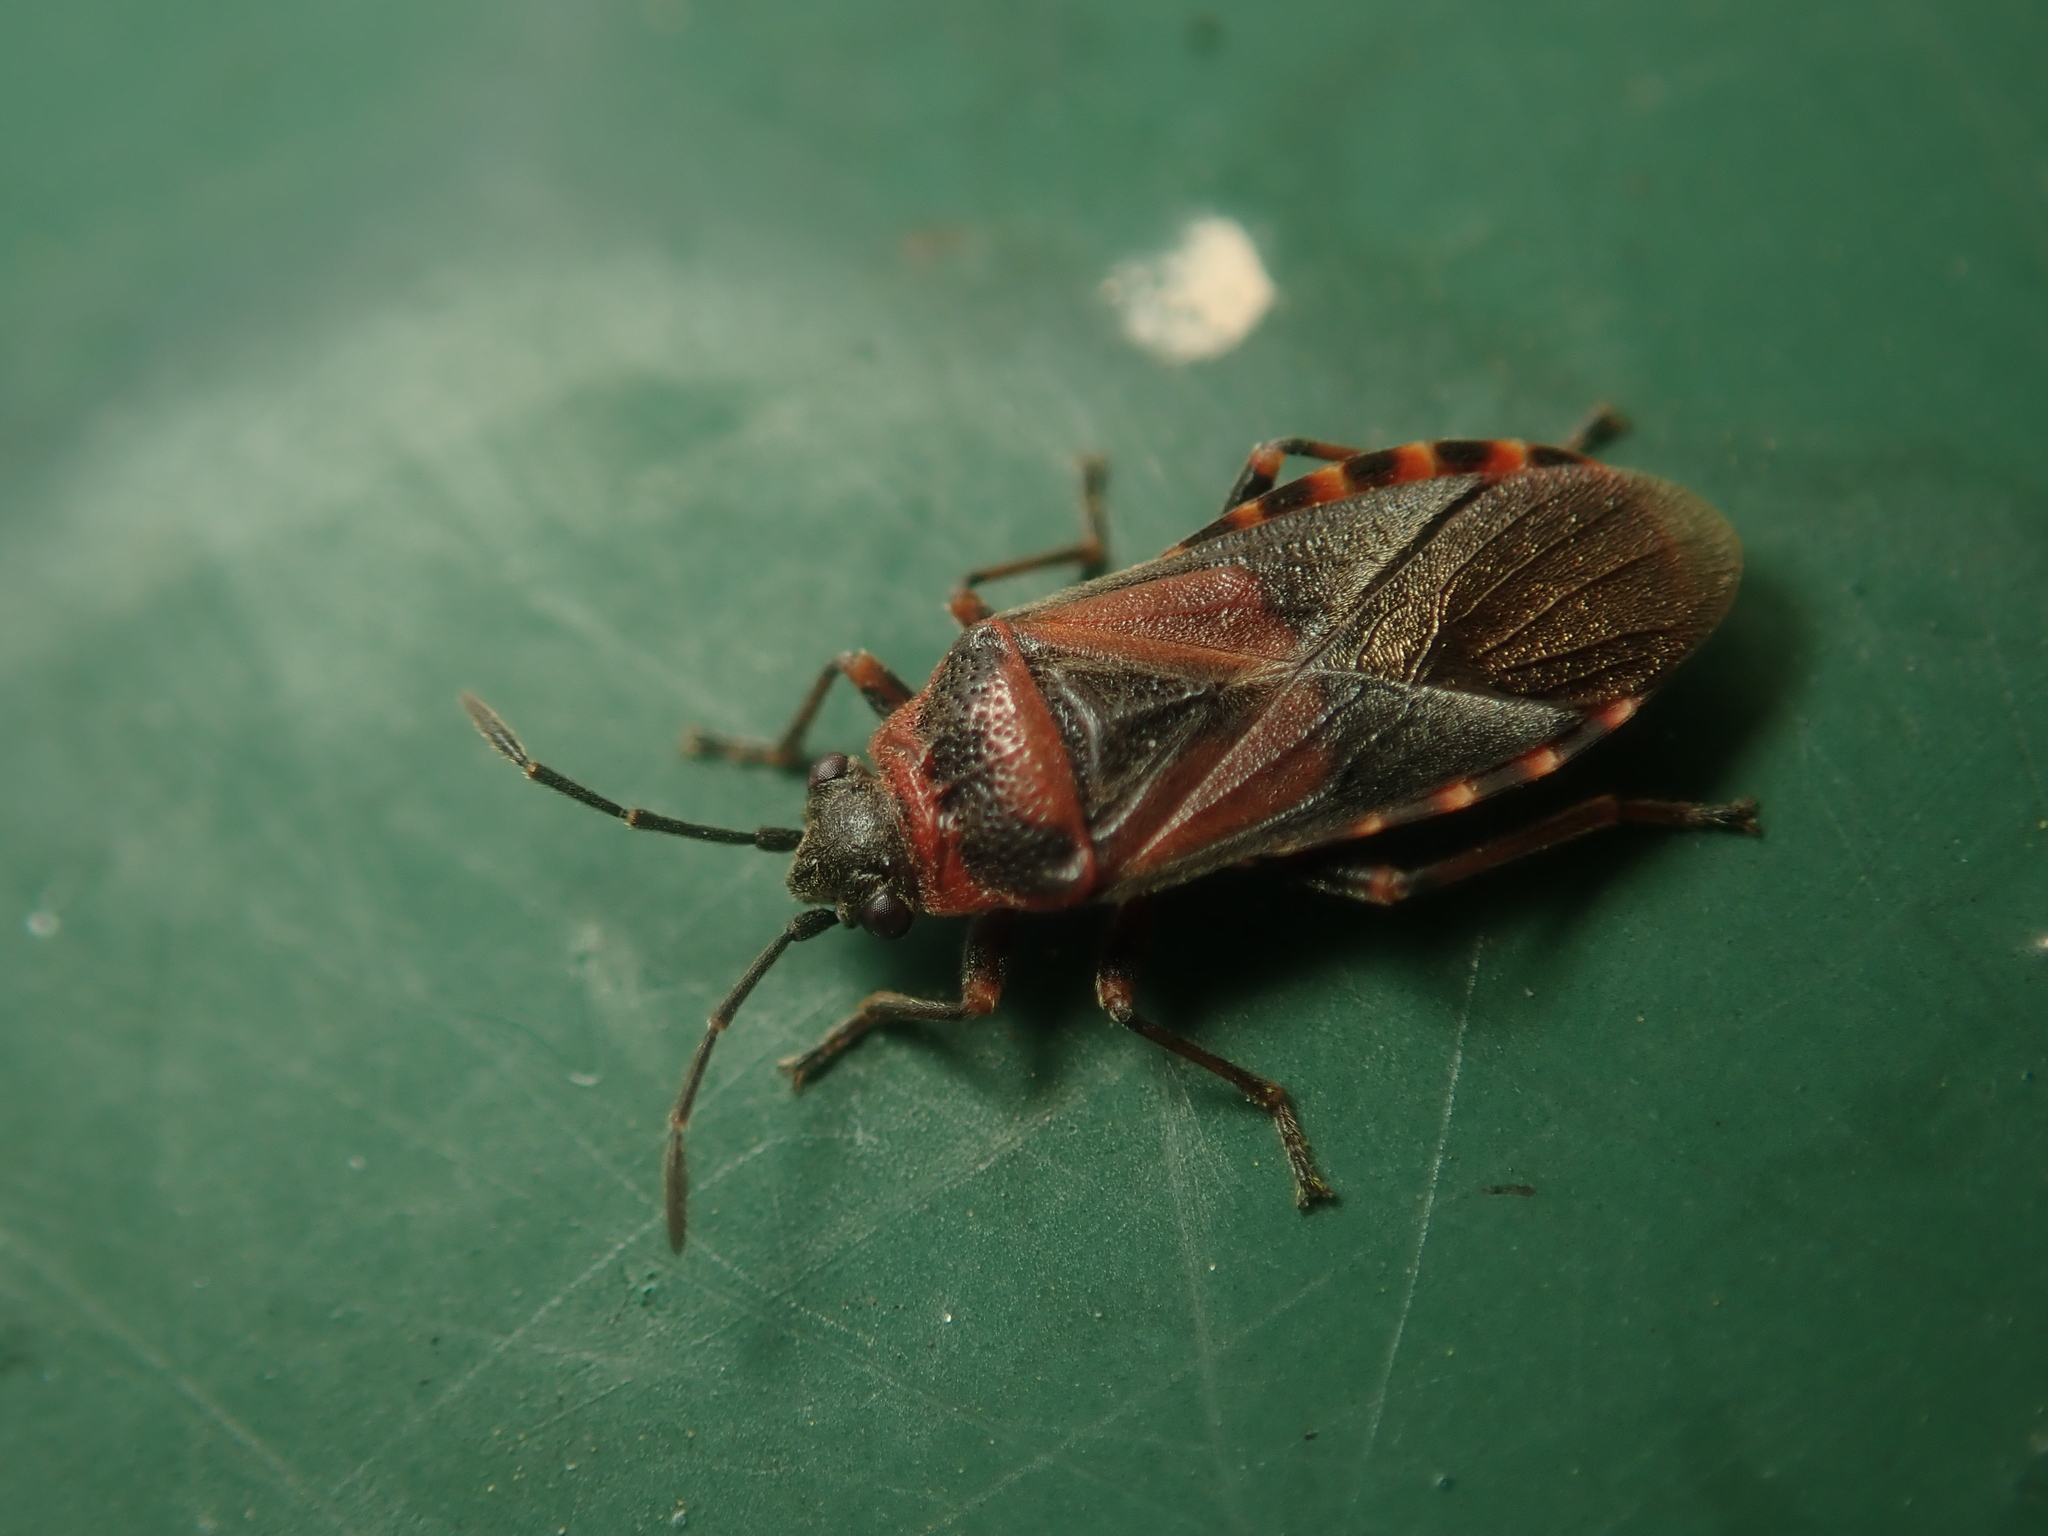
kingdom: Animalia
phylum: Arthropoda
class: Insecta
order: Hemiptera
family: Lygaeidae
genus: Arocatus
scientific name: Arocatus melanocephalus
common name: Lygaeid bug
